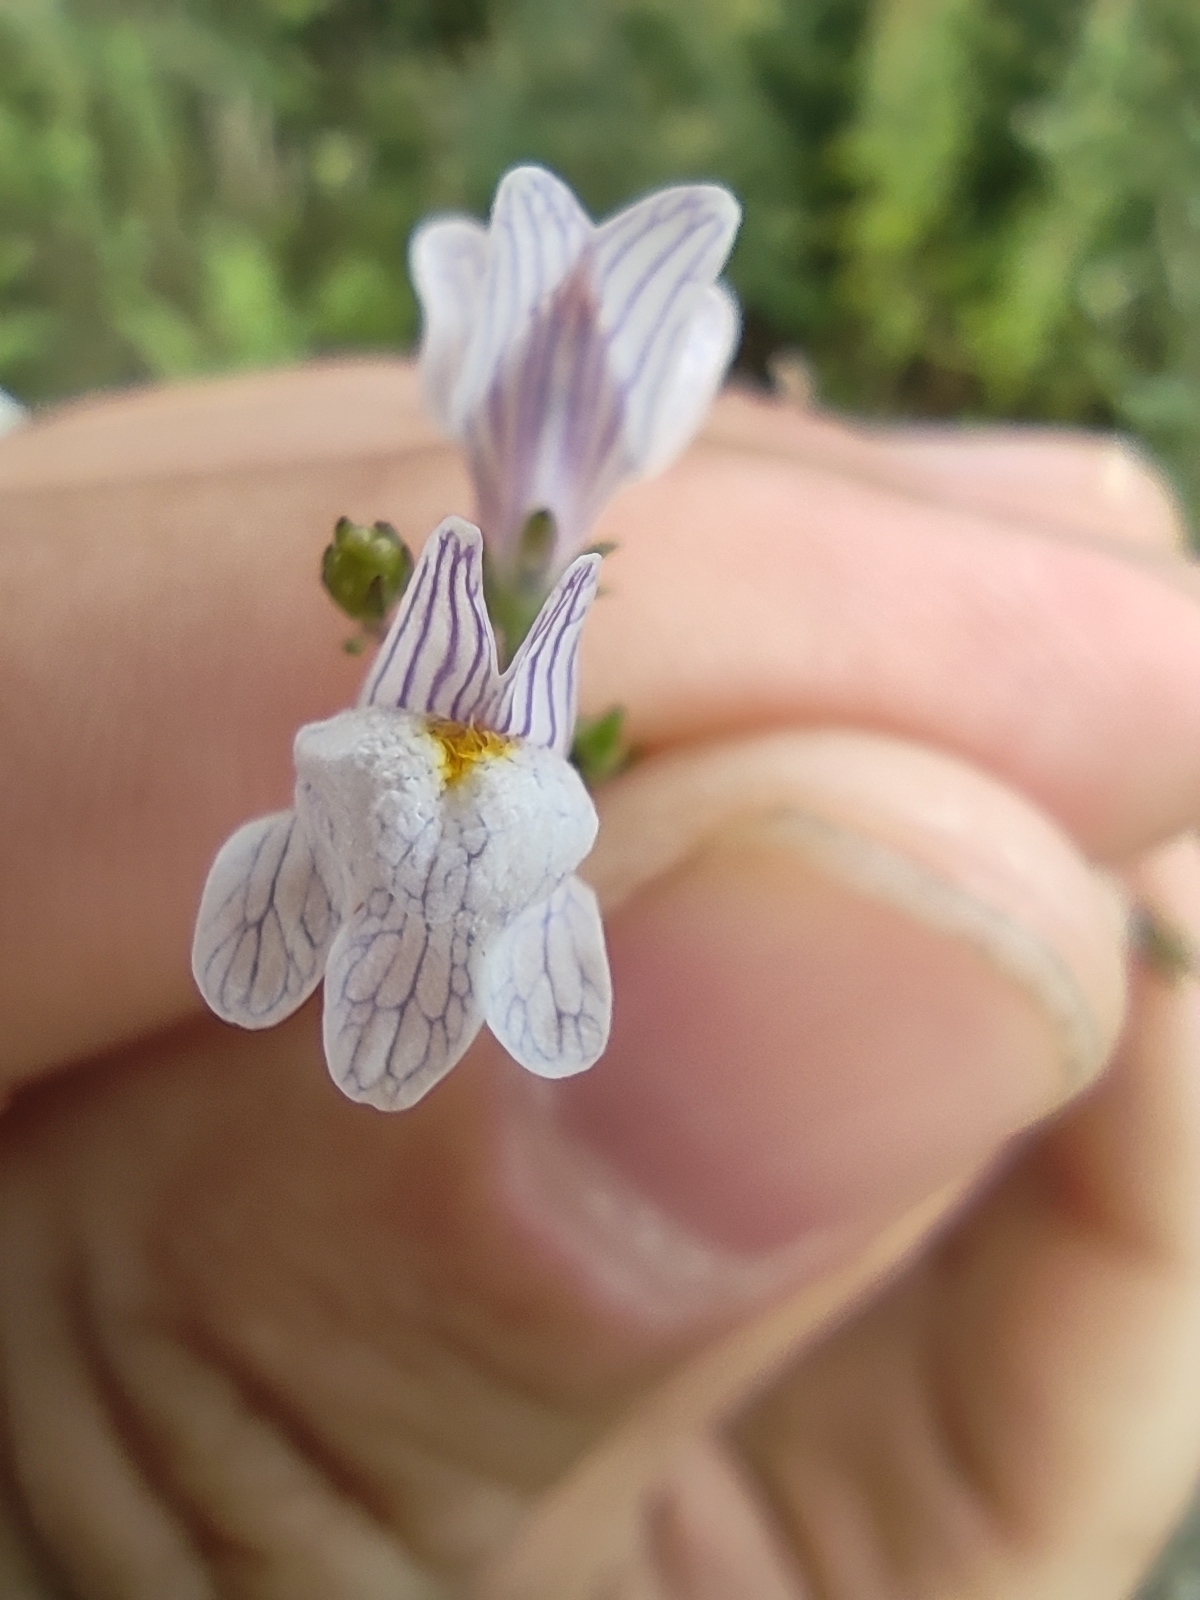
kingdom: Plantae
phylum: Tracheophyta
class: Magnoliopsida
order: Lamiales
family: Plantaginaceae
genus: Linaria
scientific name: Linaria repens
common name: Pale toadflax
